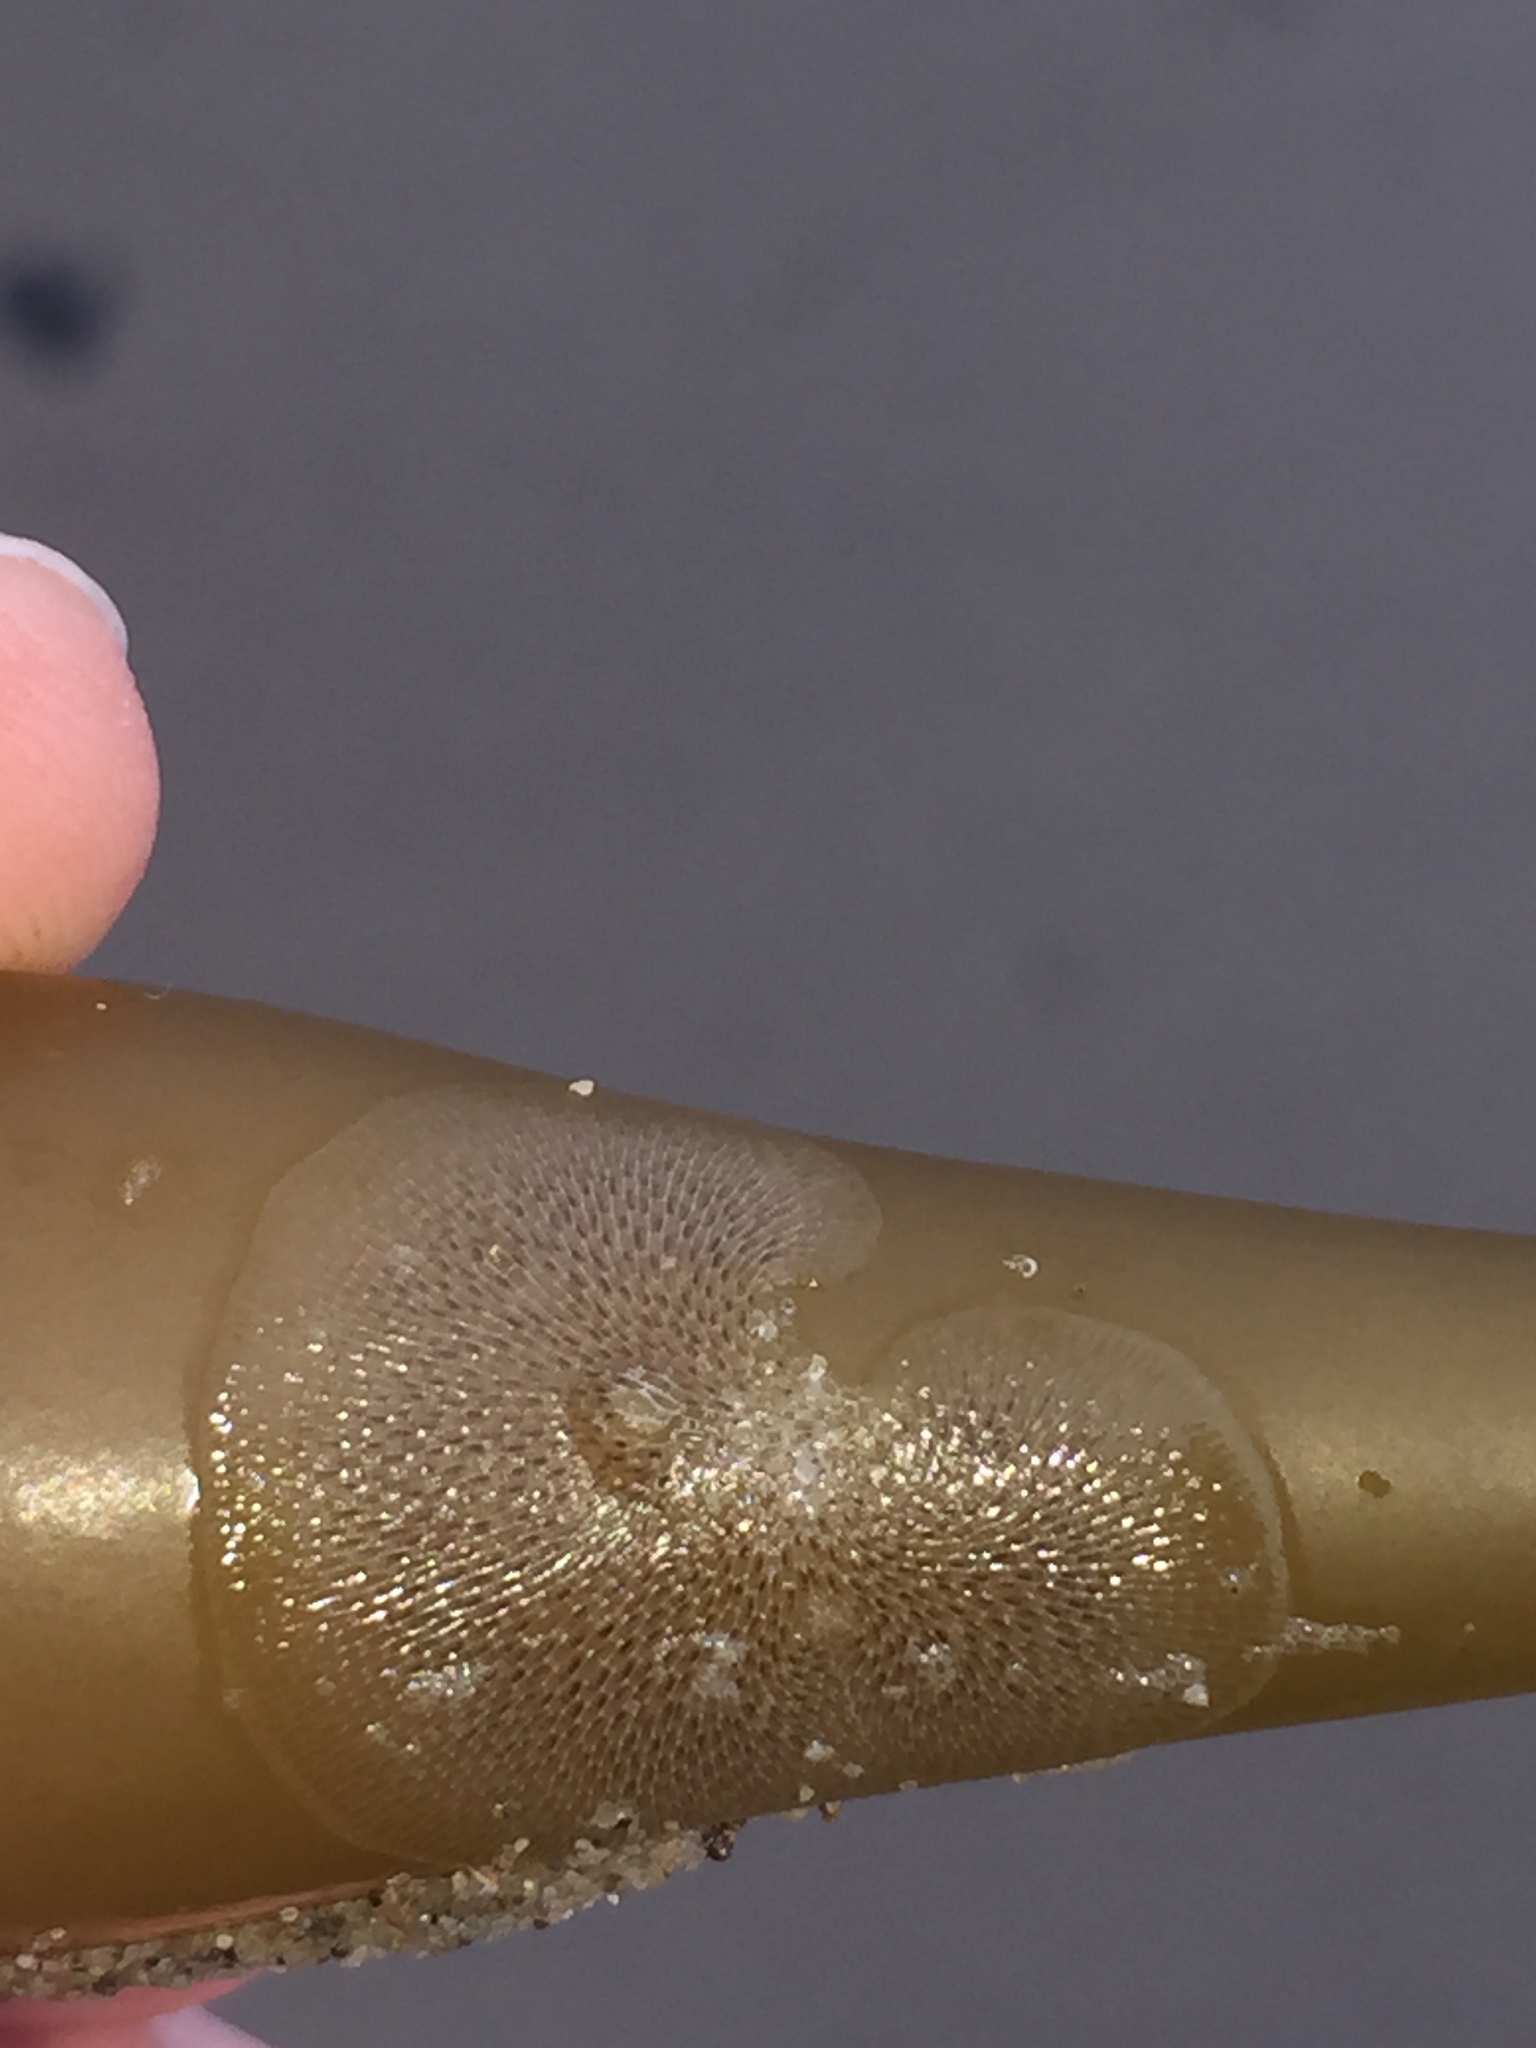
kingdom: Animalia
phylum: Bryozoa
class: Gymnolaemata
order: Cheilostomatida
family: Membraniporidae
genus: Membranipora
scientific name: Membranipora membranacea
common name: Sea mat
